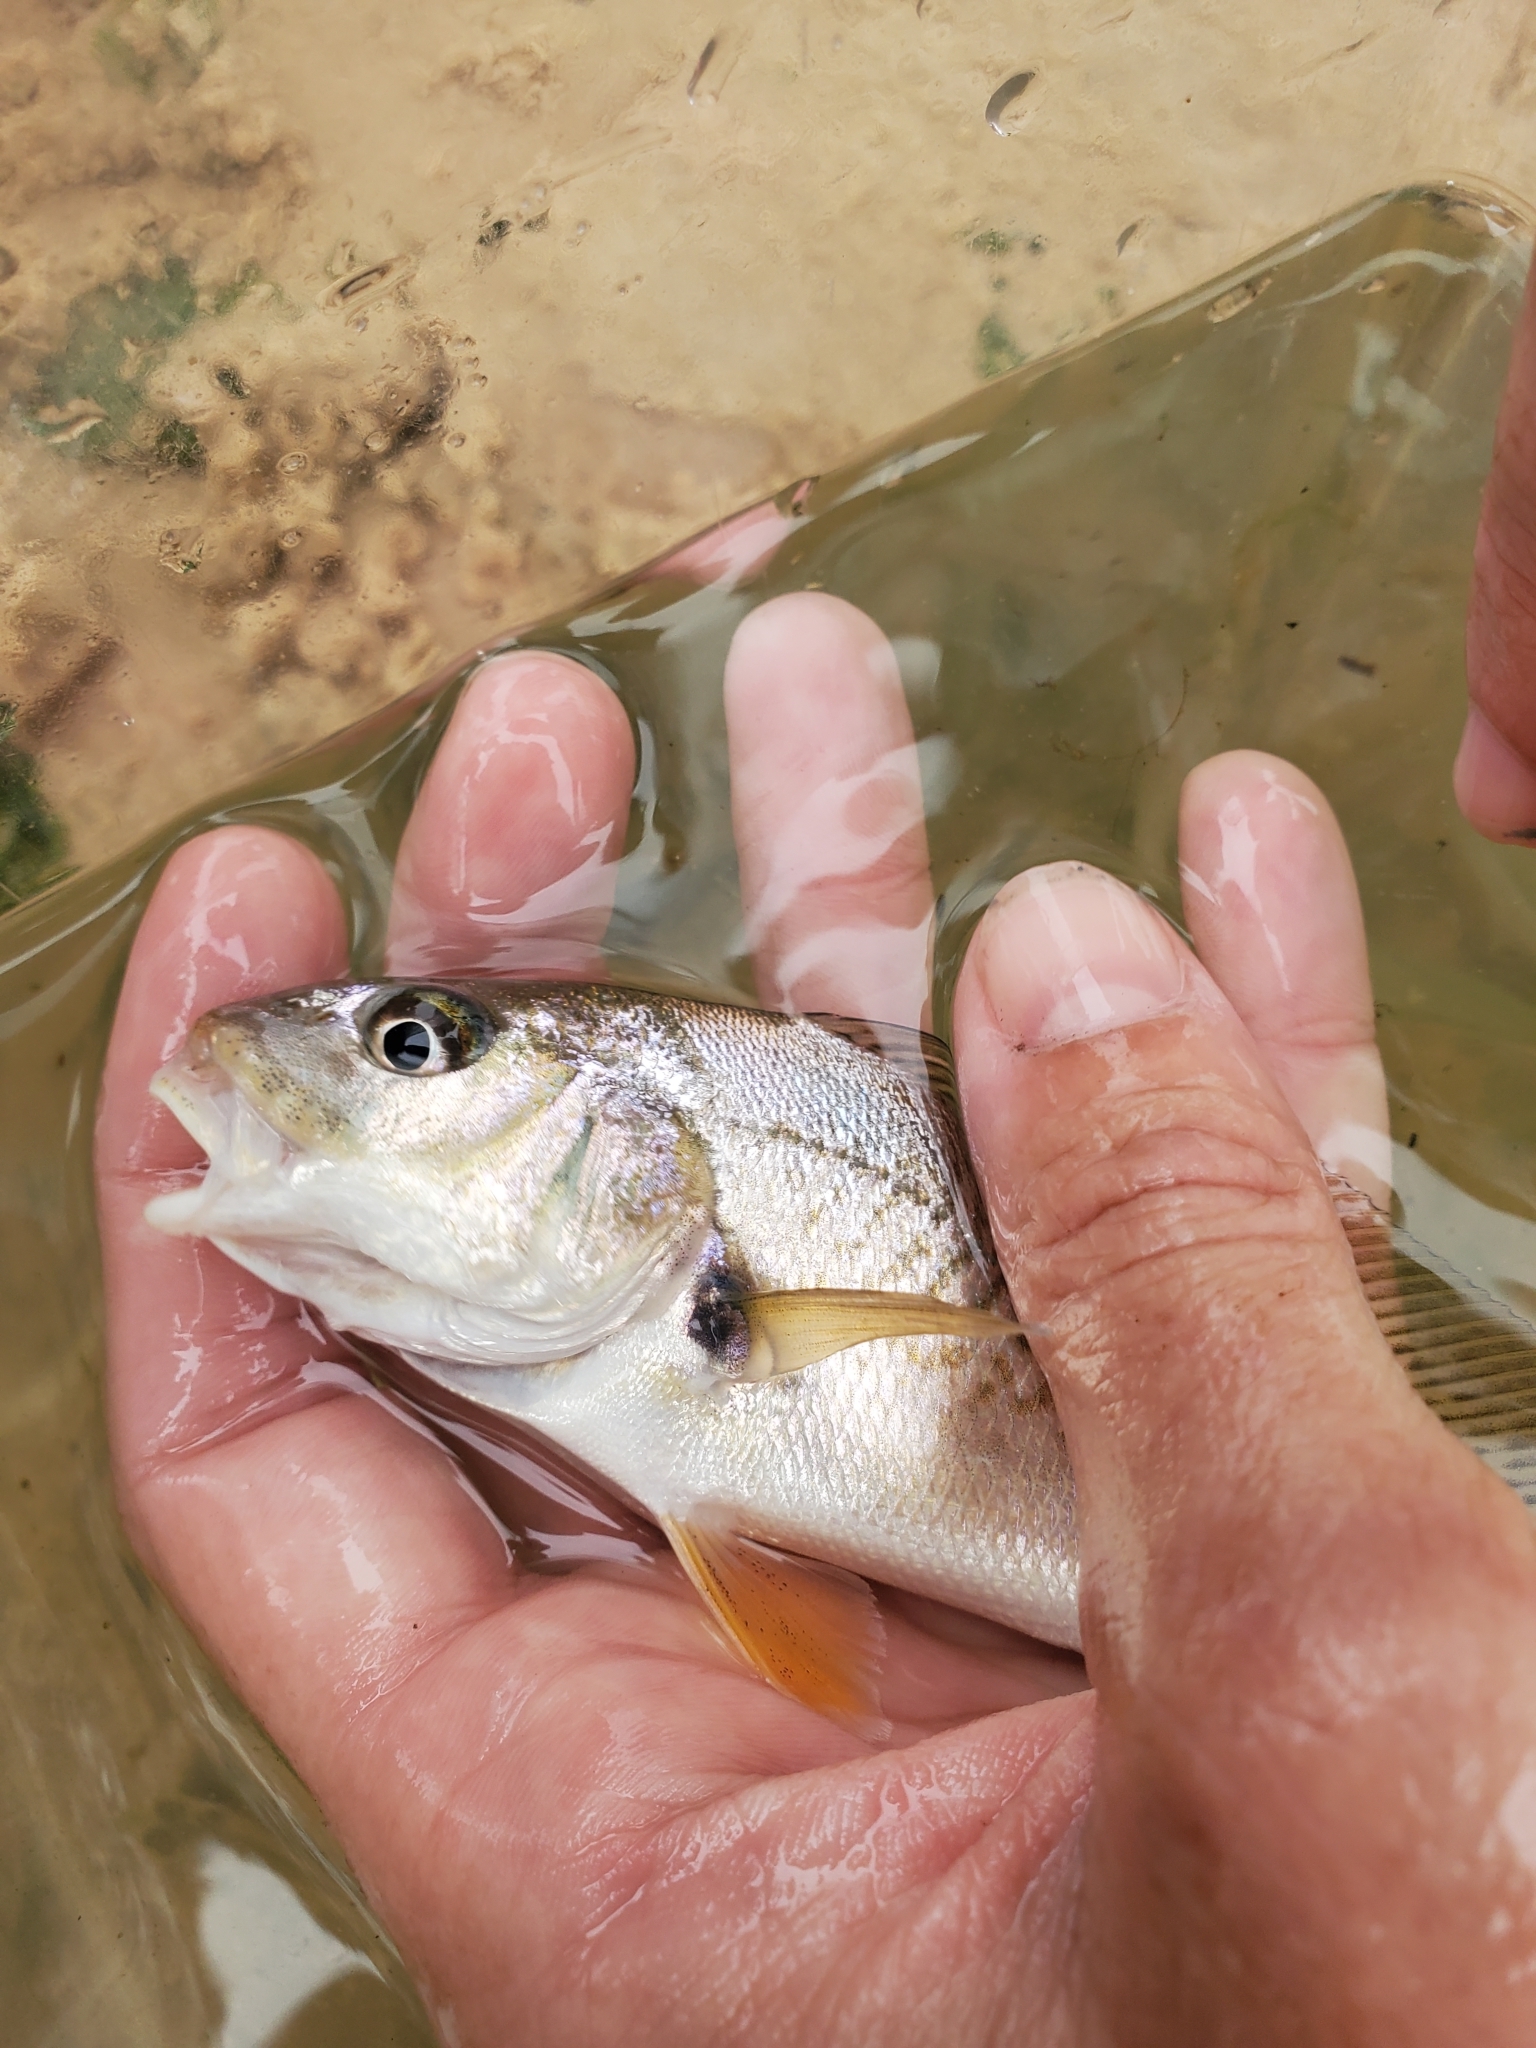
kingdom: Animalia
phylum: Chordata
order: Perciformes
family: Sciaenidae
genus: Micropogonias
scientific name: Micropogonias undulatus
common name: Atlantic croaker
